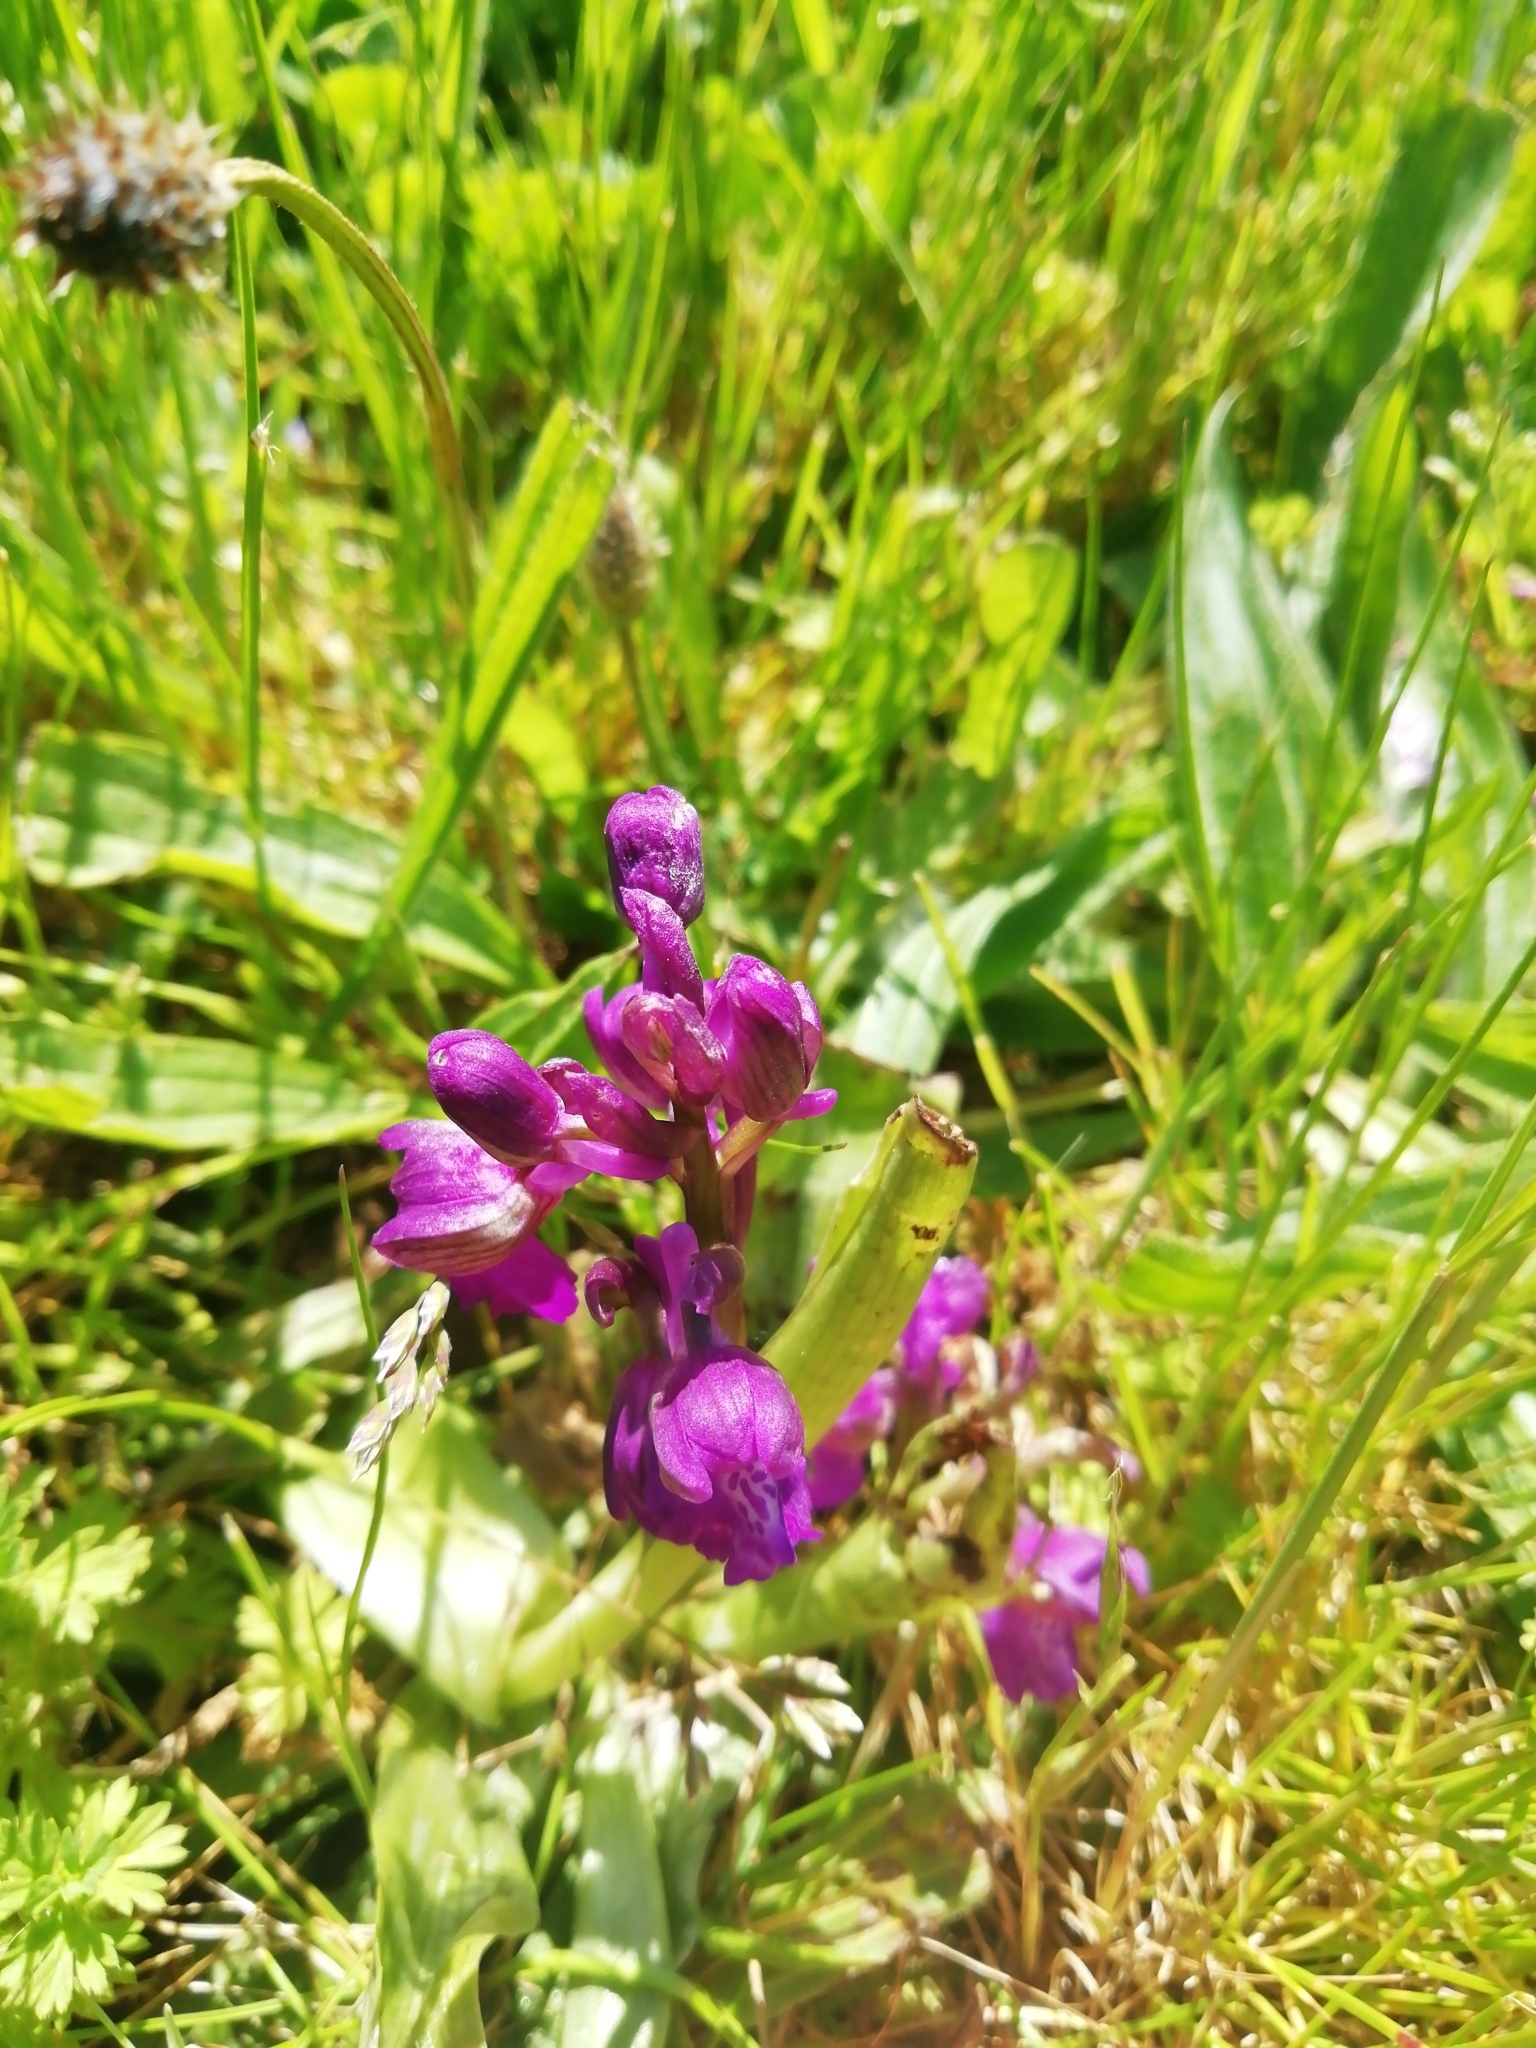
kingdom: Plantae
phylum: Tracheophyta
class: Liliopsida
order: Asparagales
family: Orchidaceae
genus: Anacamptis
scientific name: Anacamptis morio
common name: Green-winged orchid
